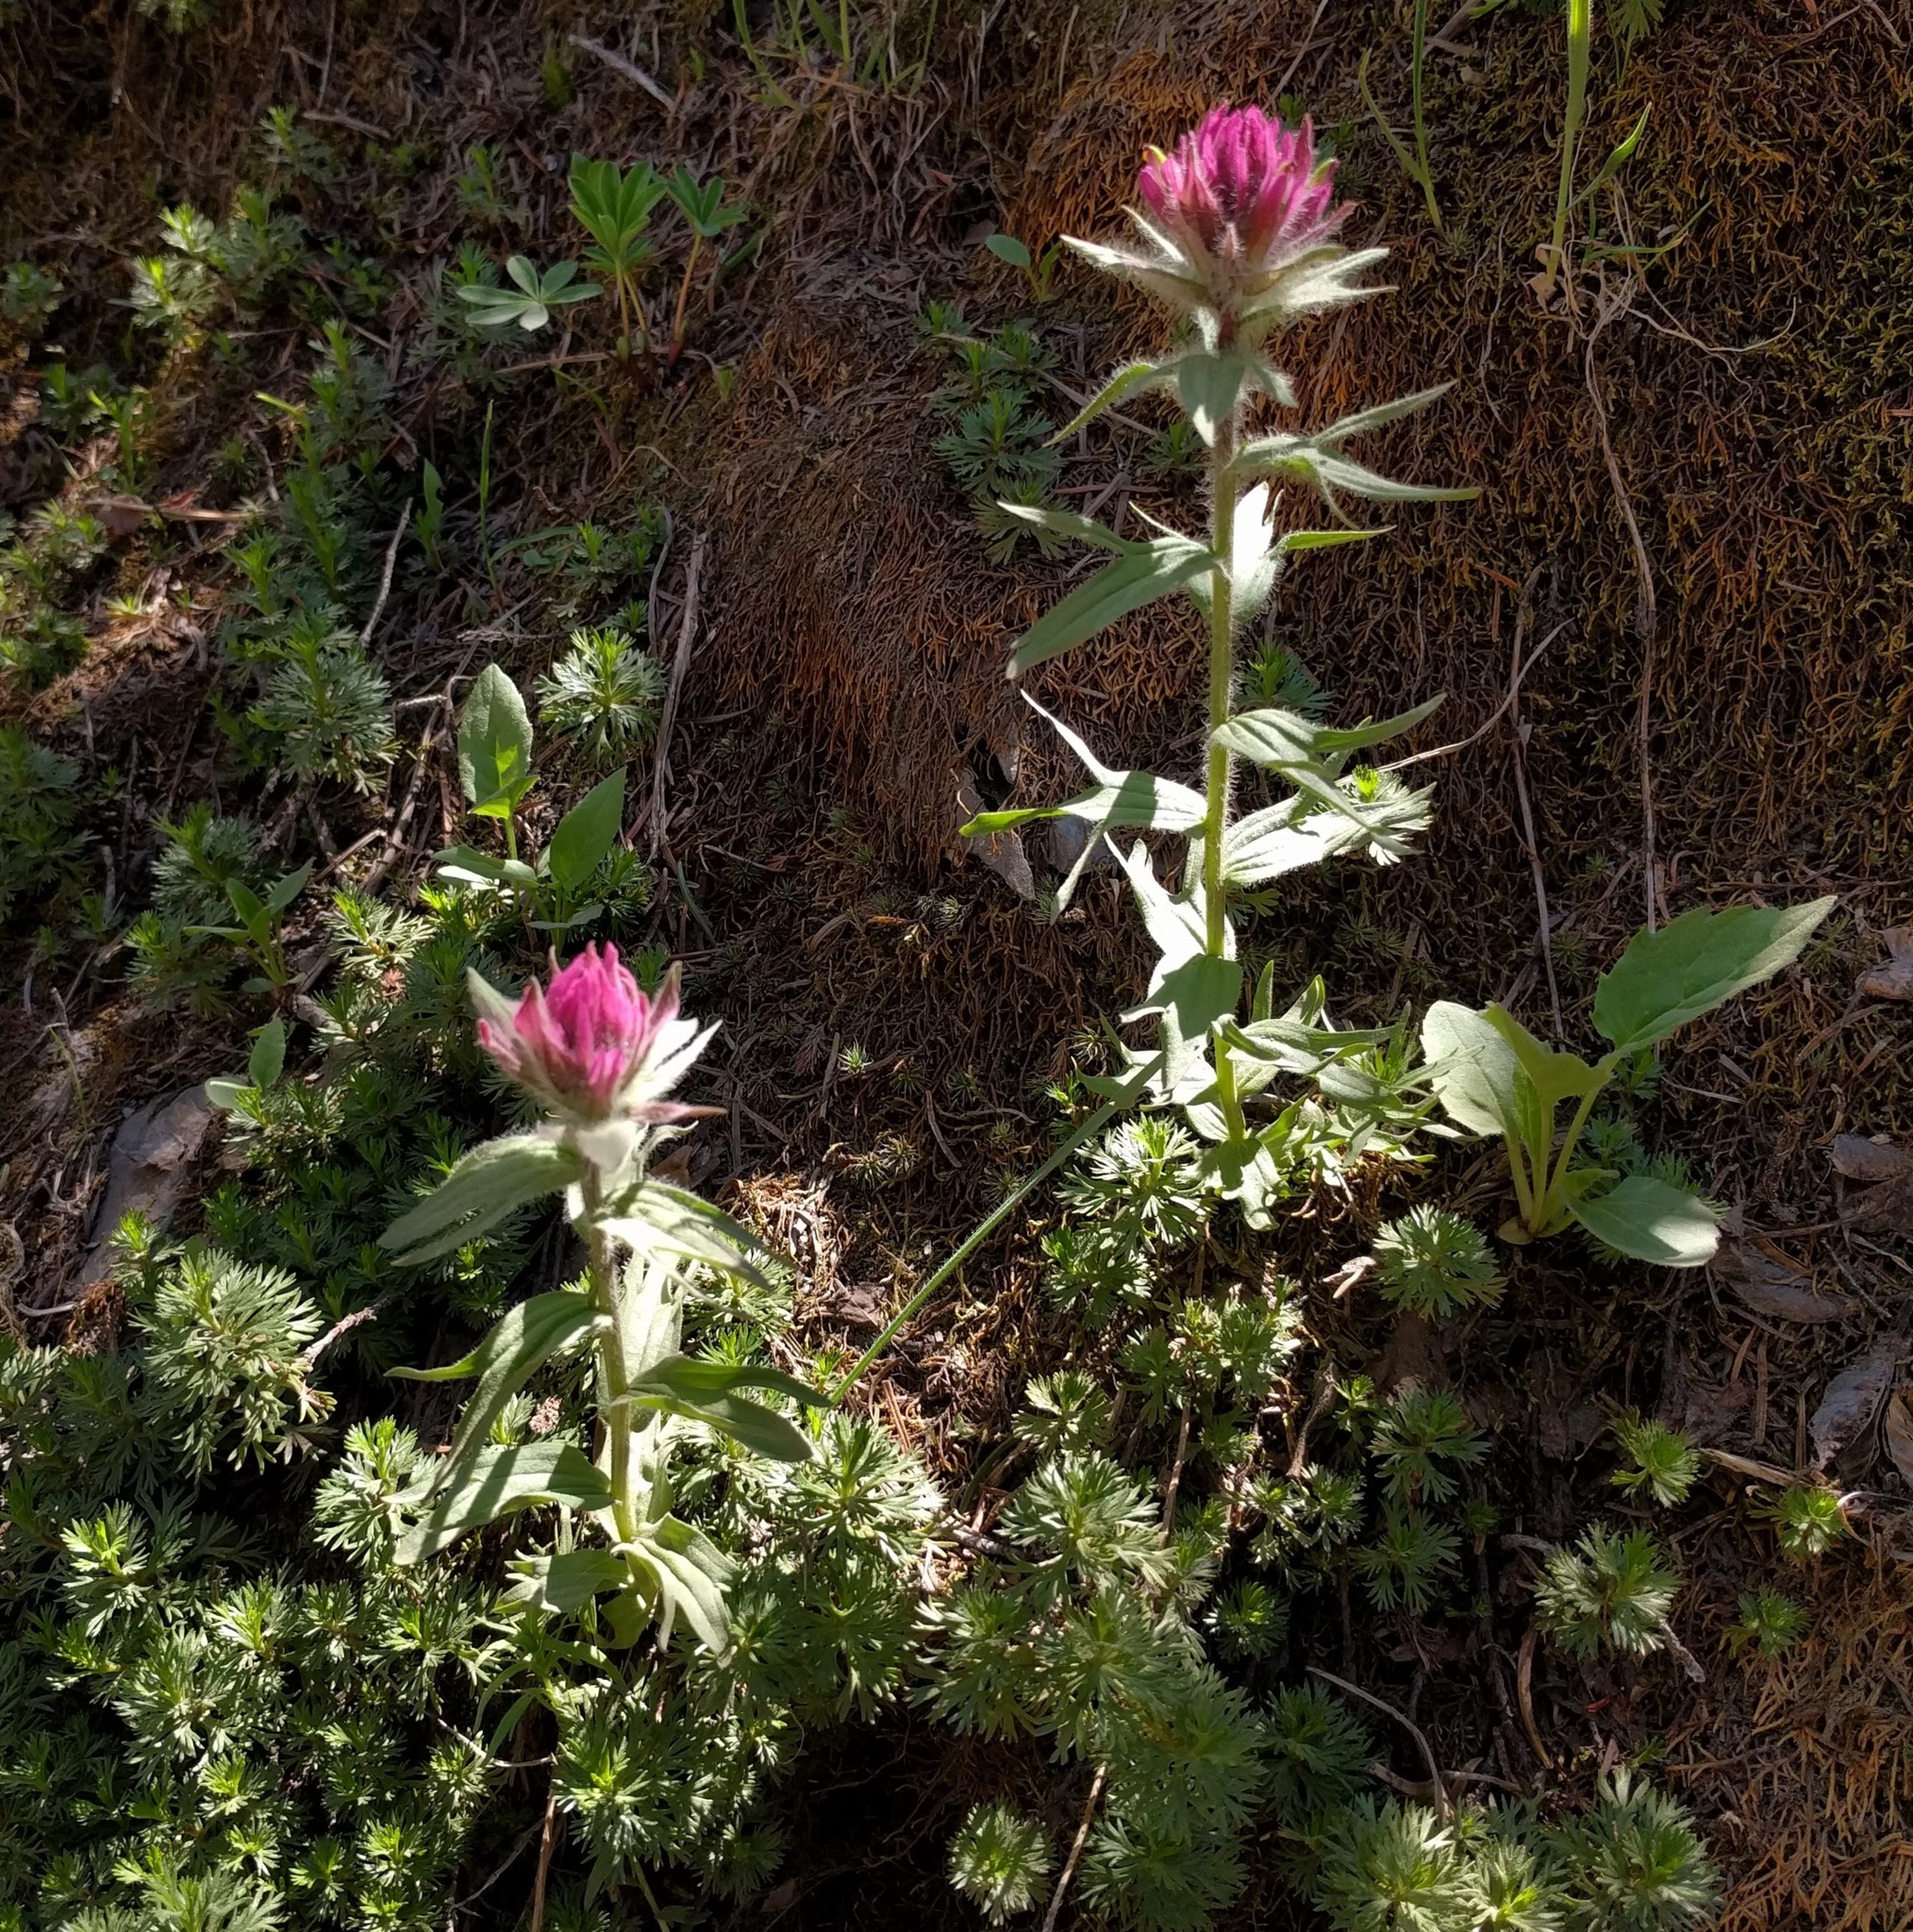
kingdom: Plantae
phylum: Tracheophyta
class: Magnoliopsida
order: Lamiales
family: Orobanchaceae
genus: Castilleja
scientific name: Castilleja parviflora
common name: Mountain paintbrush
